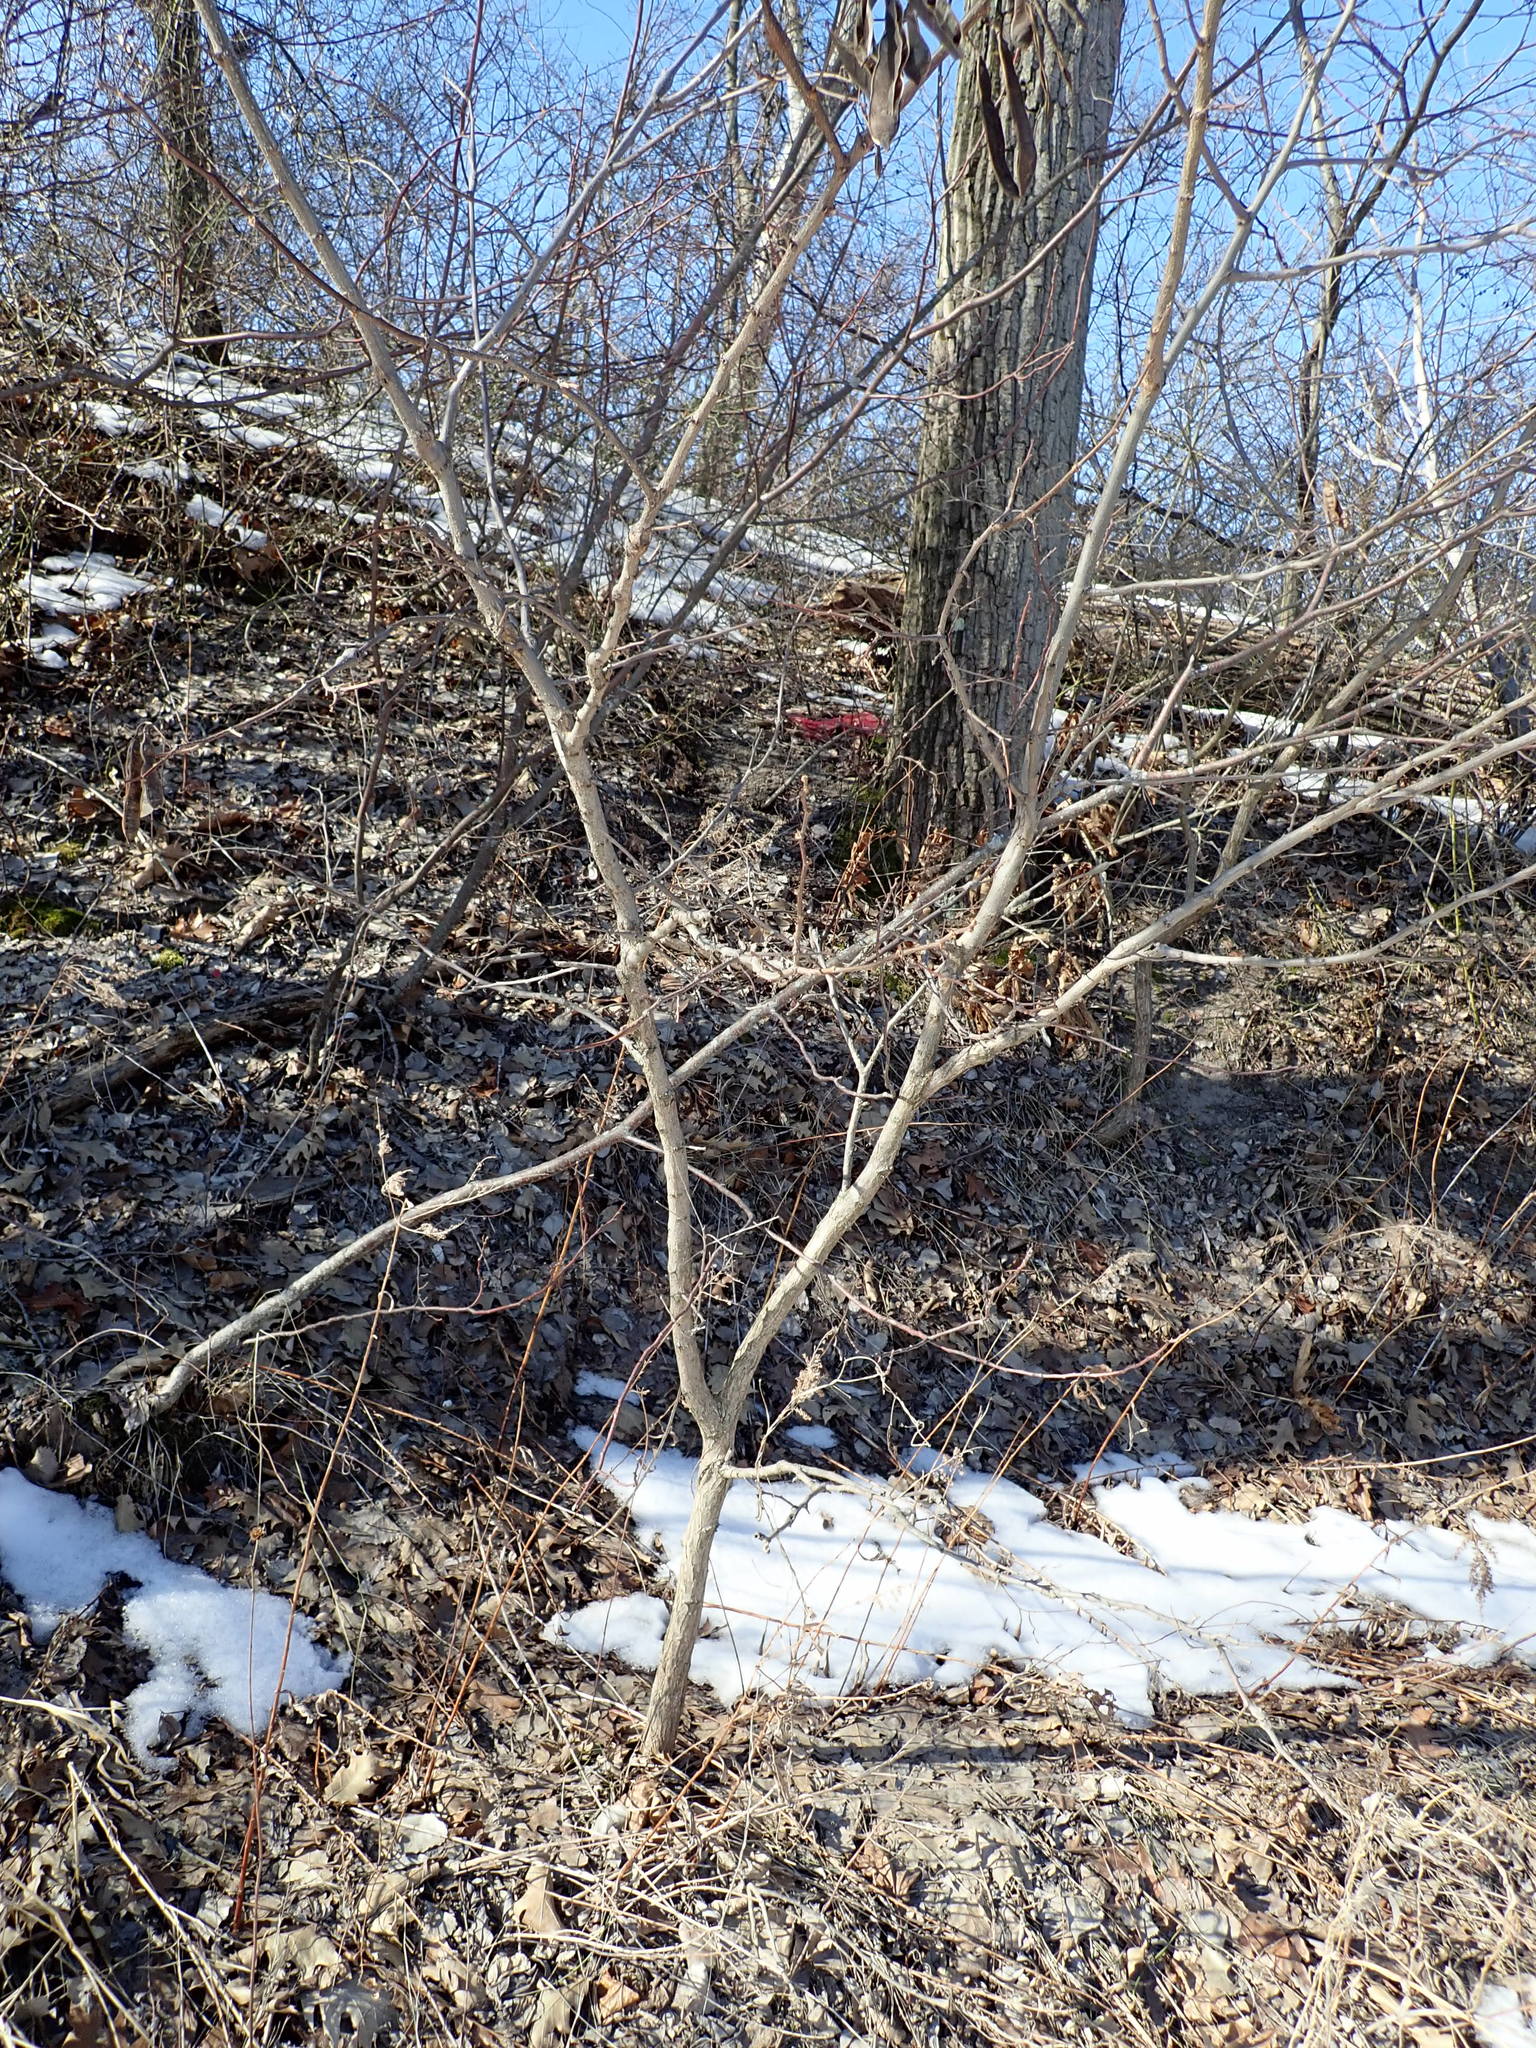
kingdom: Plantae
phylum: Tracheophyta
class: Magnoliopsida
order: Fabales
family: Fabaceae
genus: Robinia
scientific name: Robinia pseudoacacia
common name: Black locust
